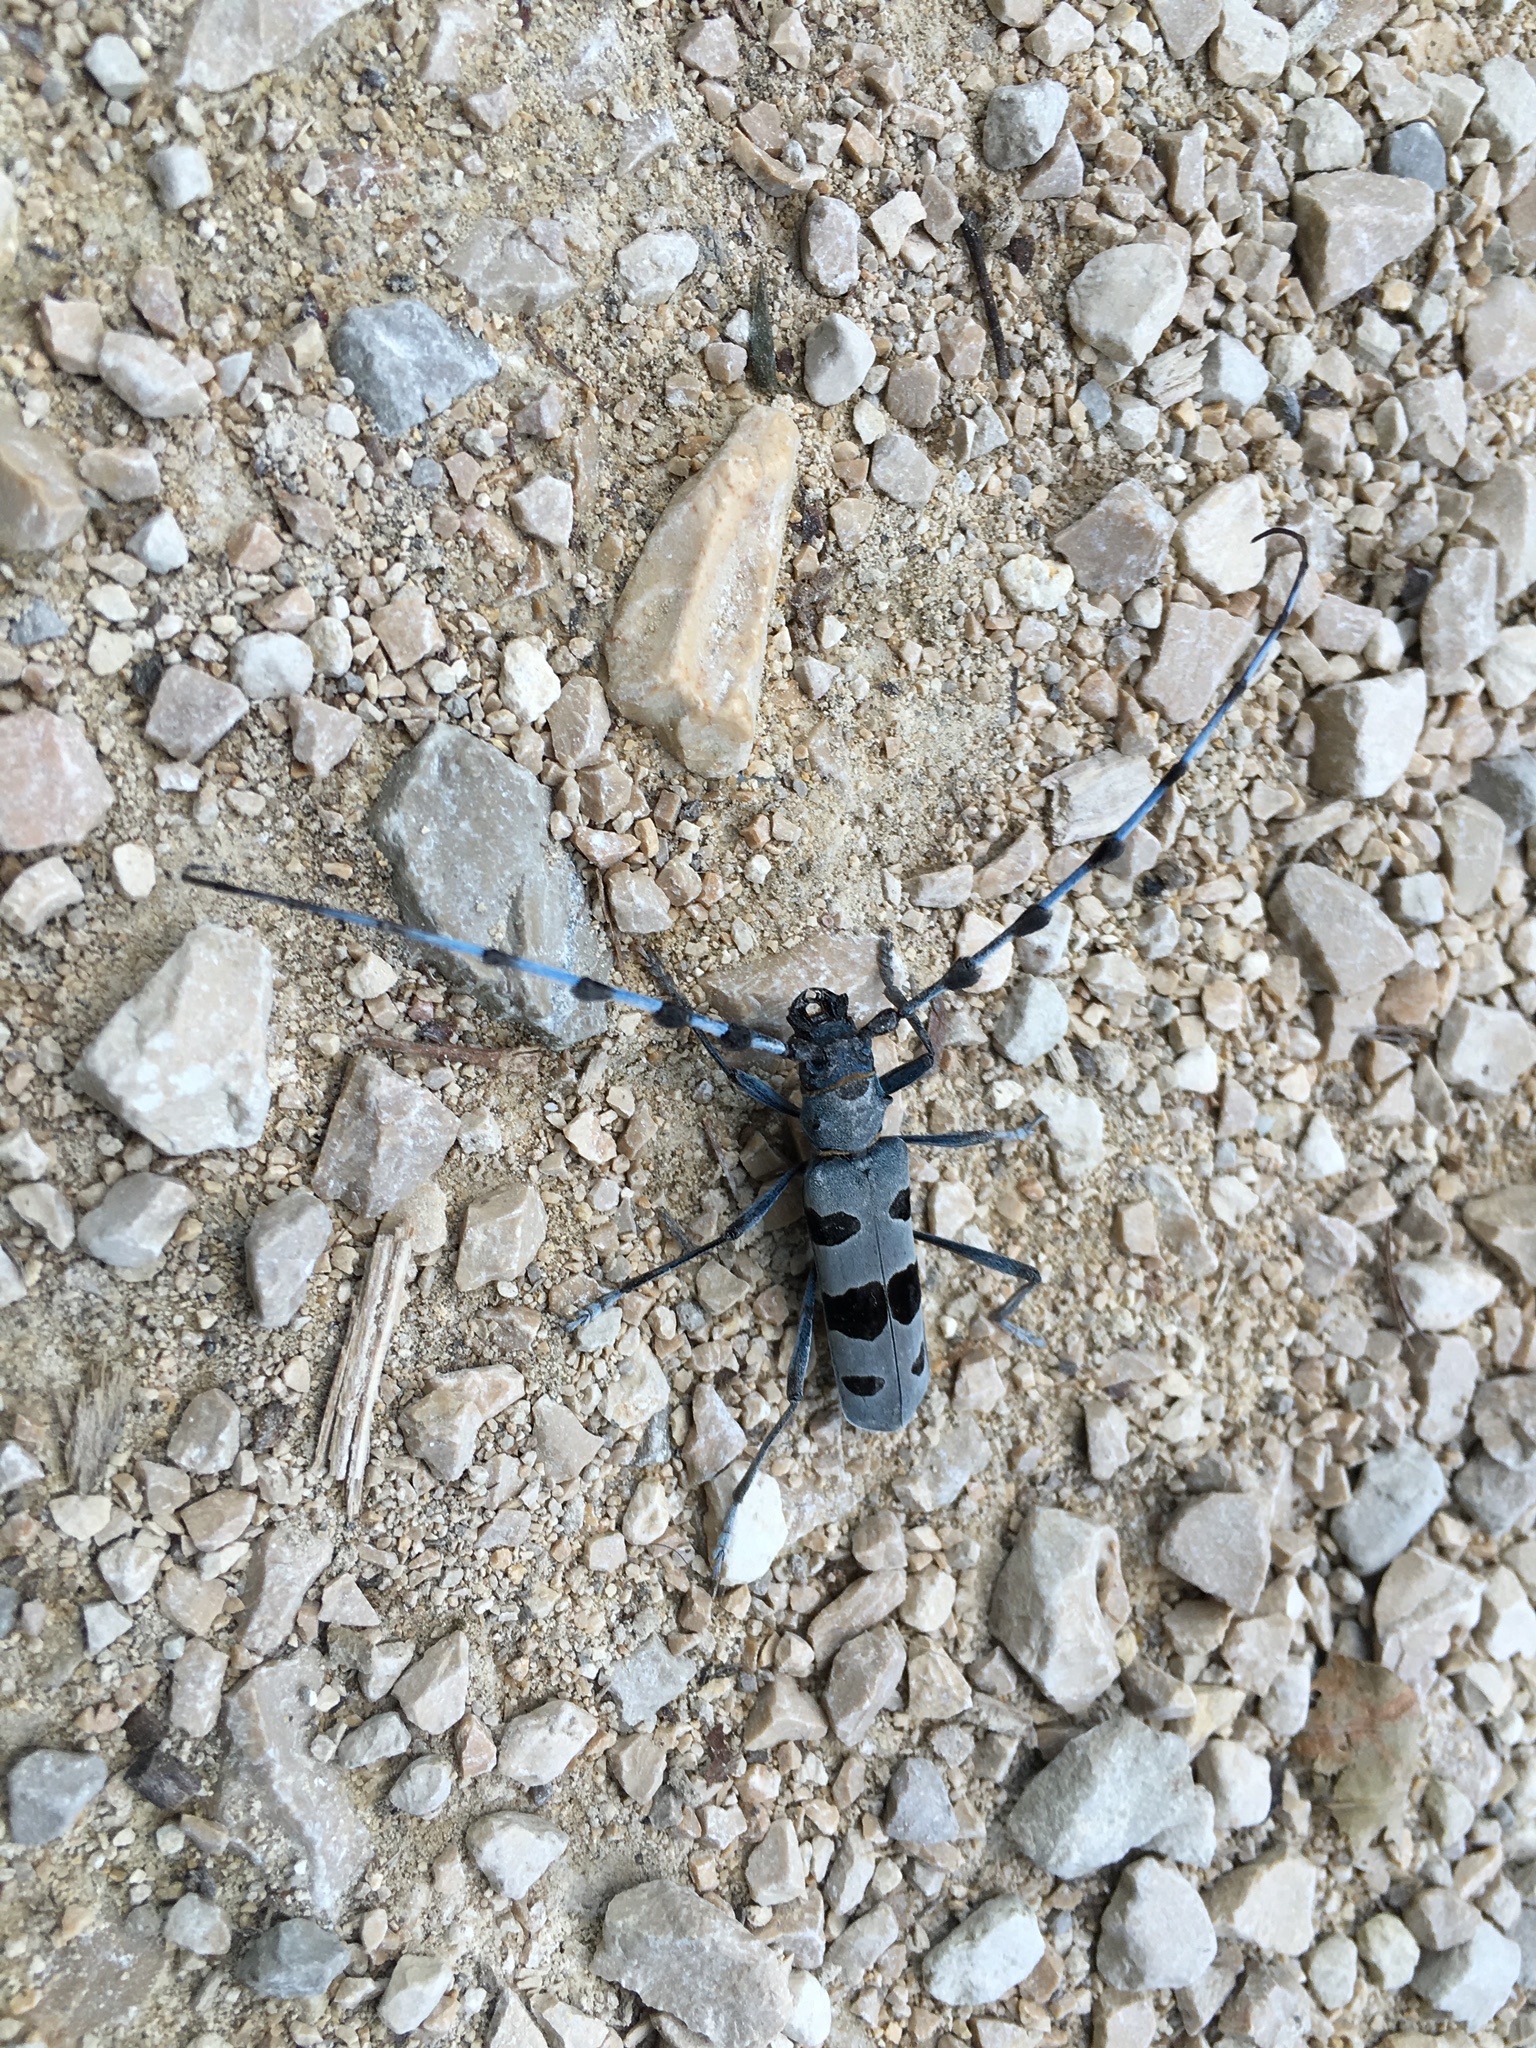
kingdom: Animalia
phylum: Arthropoda
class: Insecta
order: Coleoptera
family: Cerambycidae
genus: Rosalia
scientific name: Rosalia alpina
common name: Rosalia longicorn
